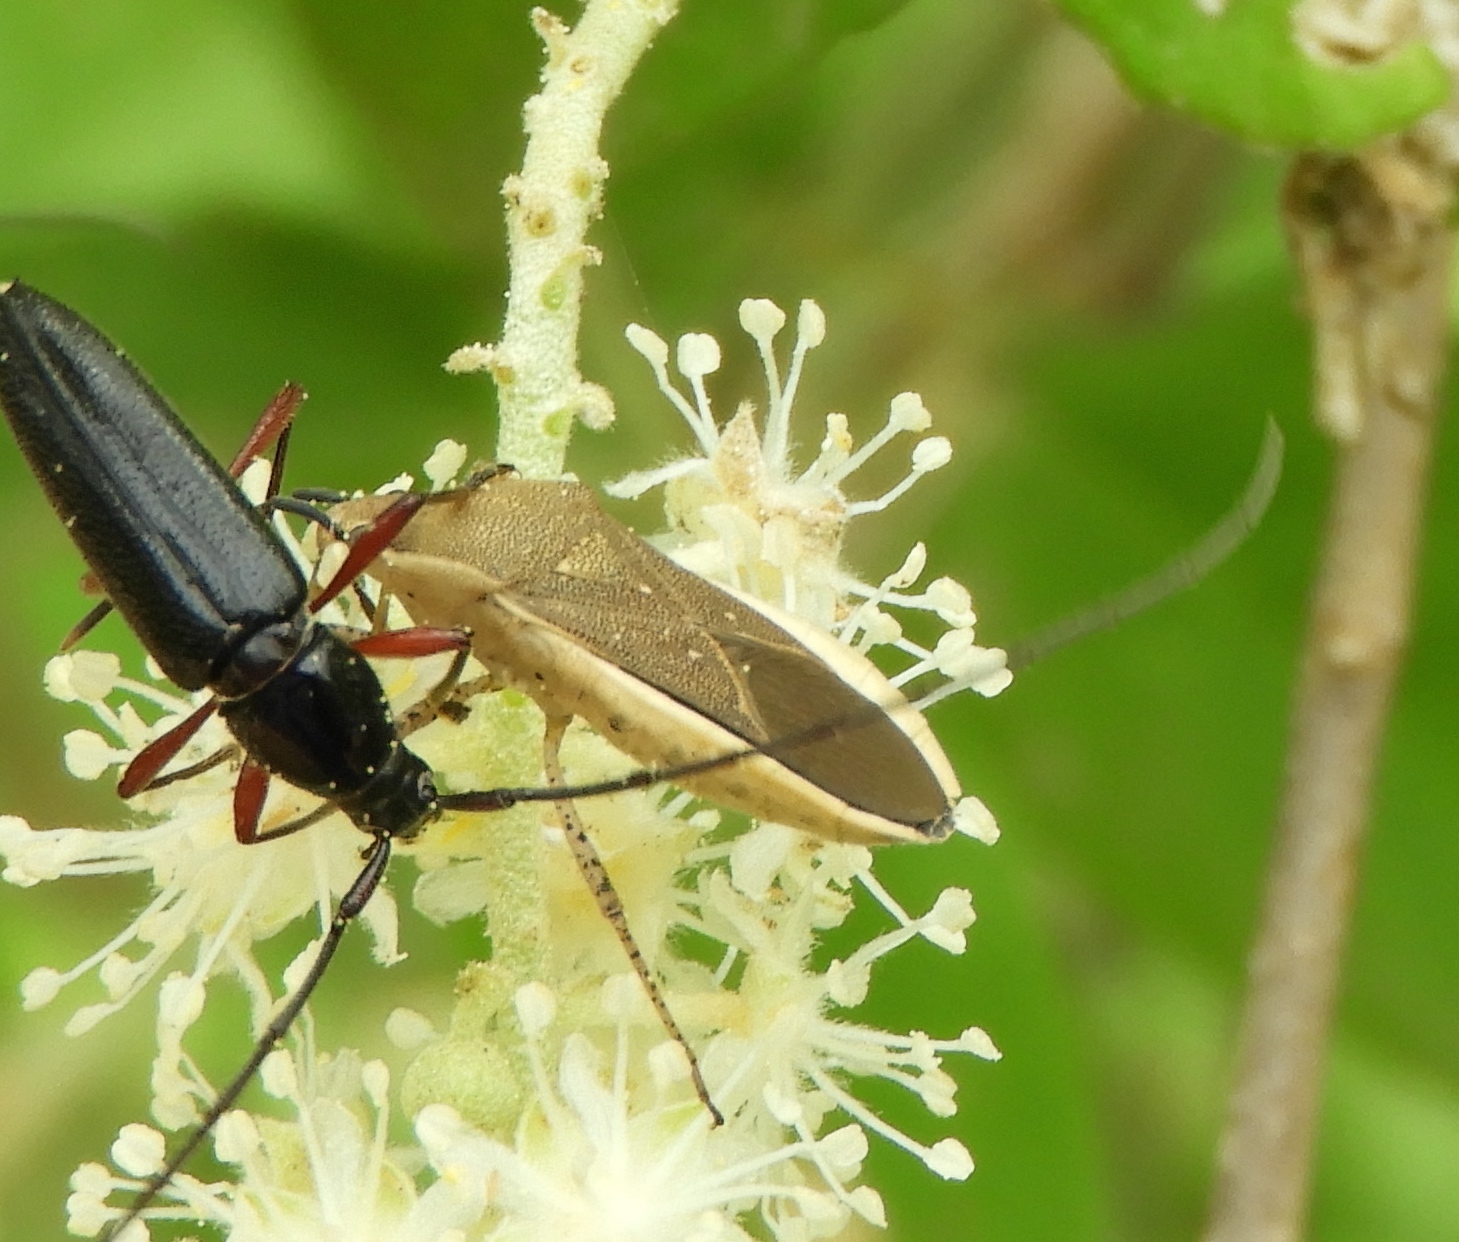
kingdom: Animalia
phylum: Arthropoda
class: Insecta
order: Hemiptera
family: Coreidae
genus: Catorhintha
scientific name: Catorhintha selector
